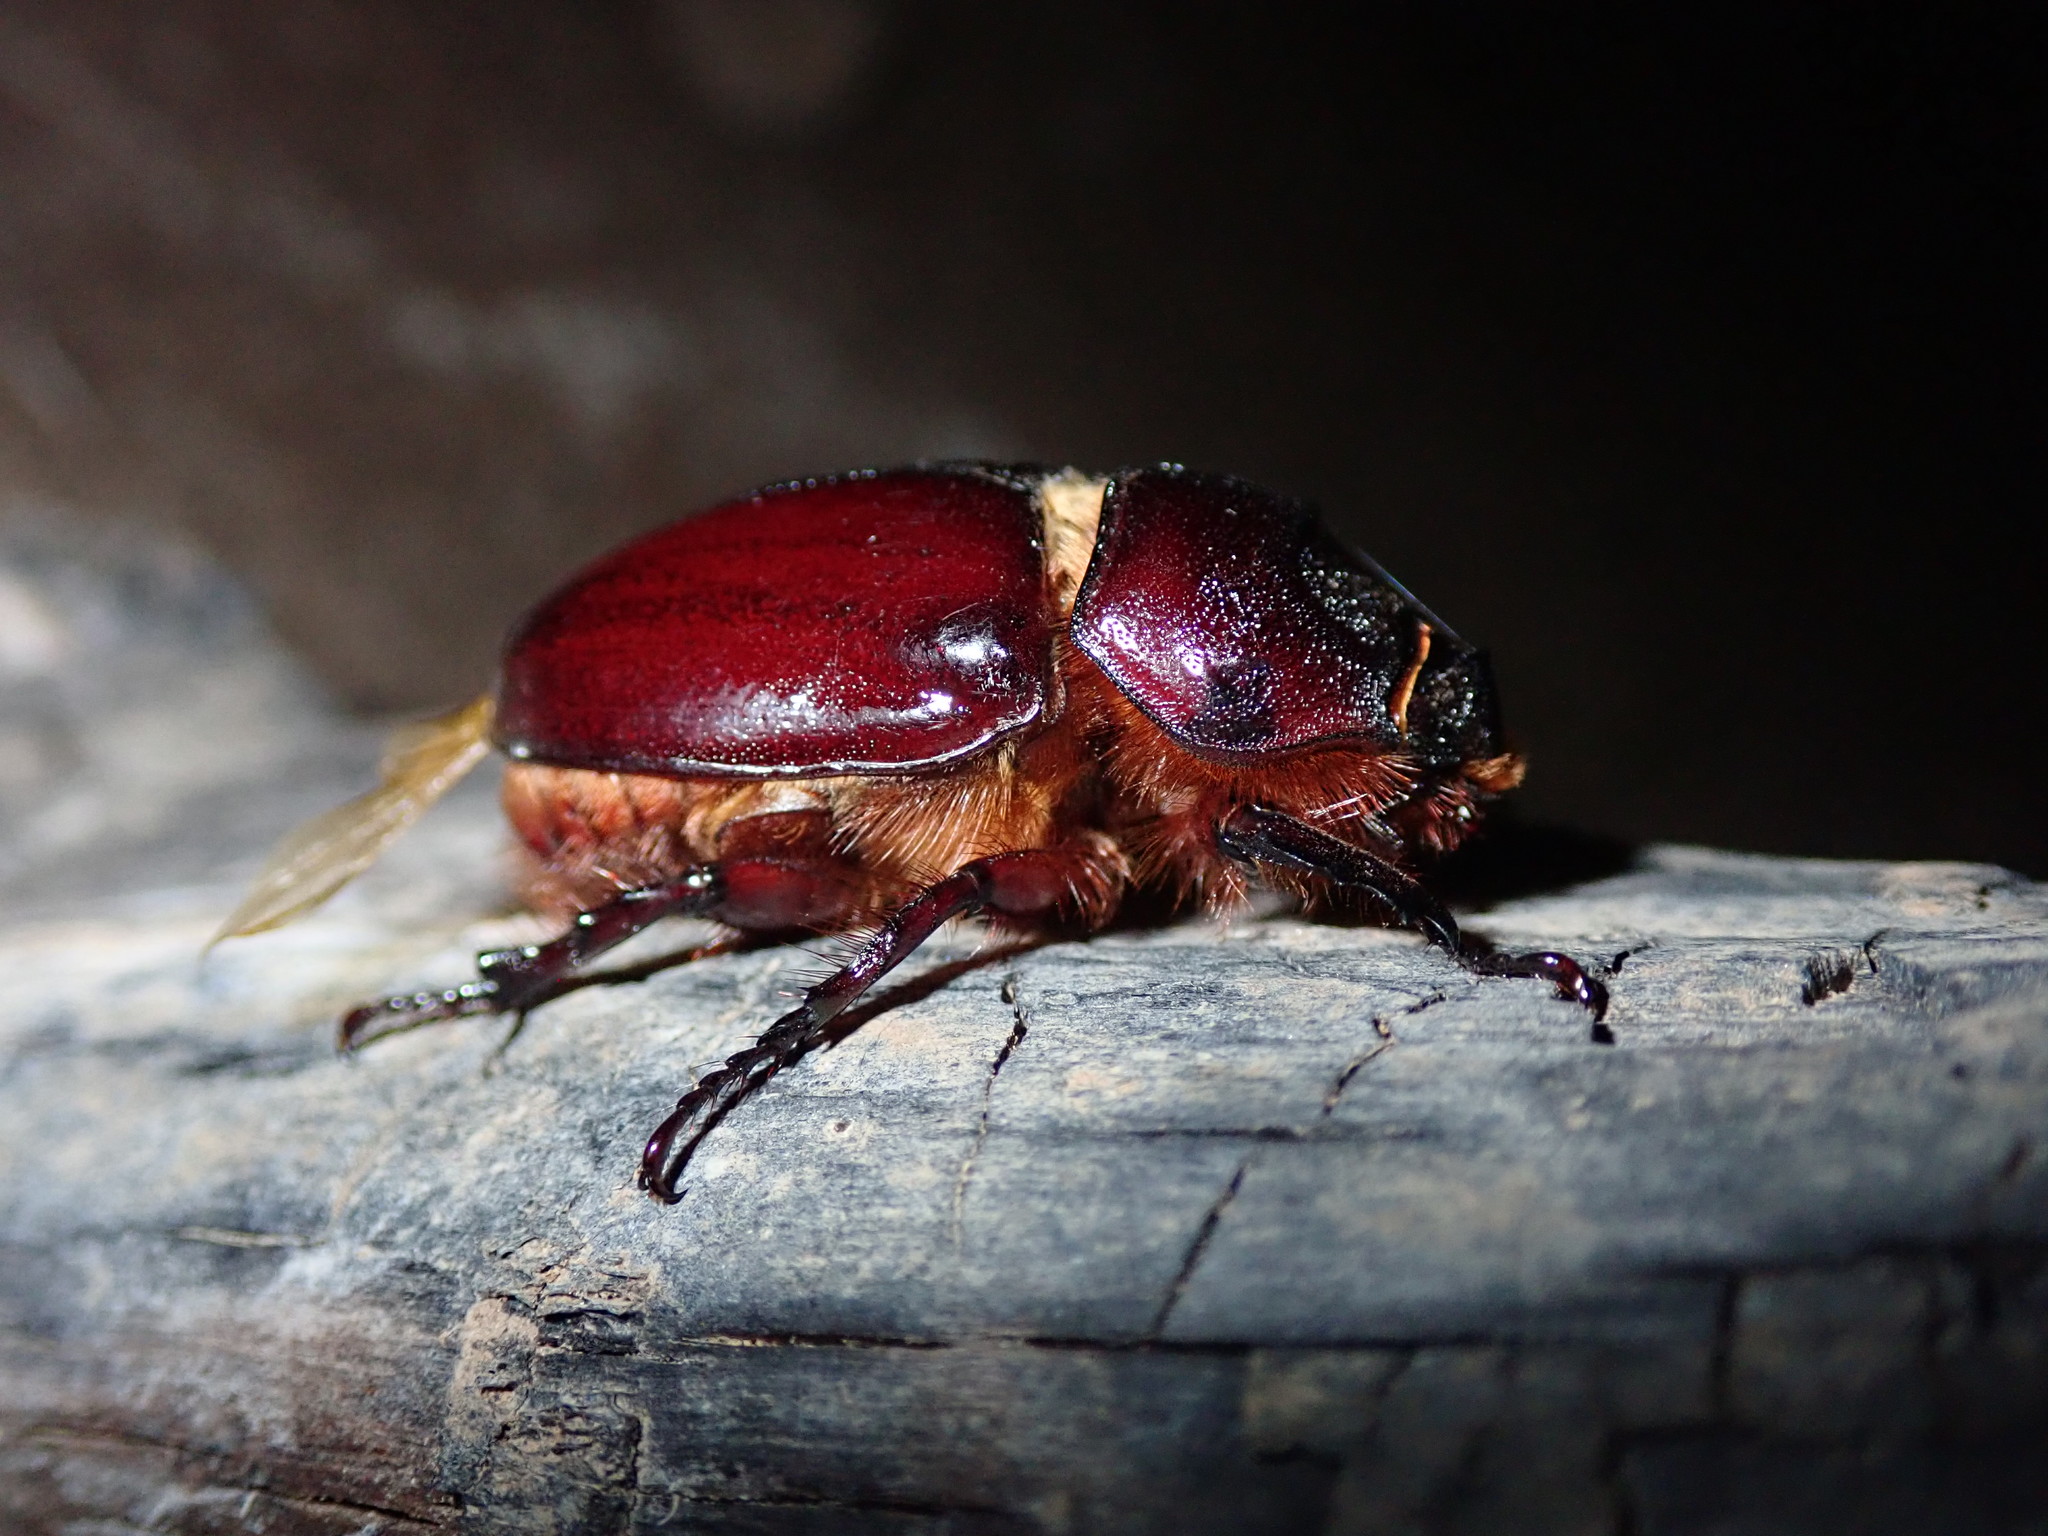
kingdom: Animalia
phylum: Arthropoda
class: Insecta
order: Coleoptera
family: Scarabaeidae
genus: Oryctes
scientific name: Oryctes nasicornis
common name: European rhinoceros beetle
